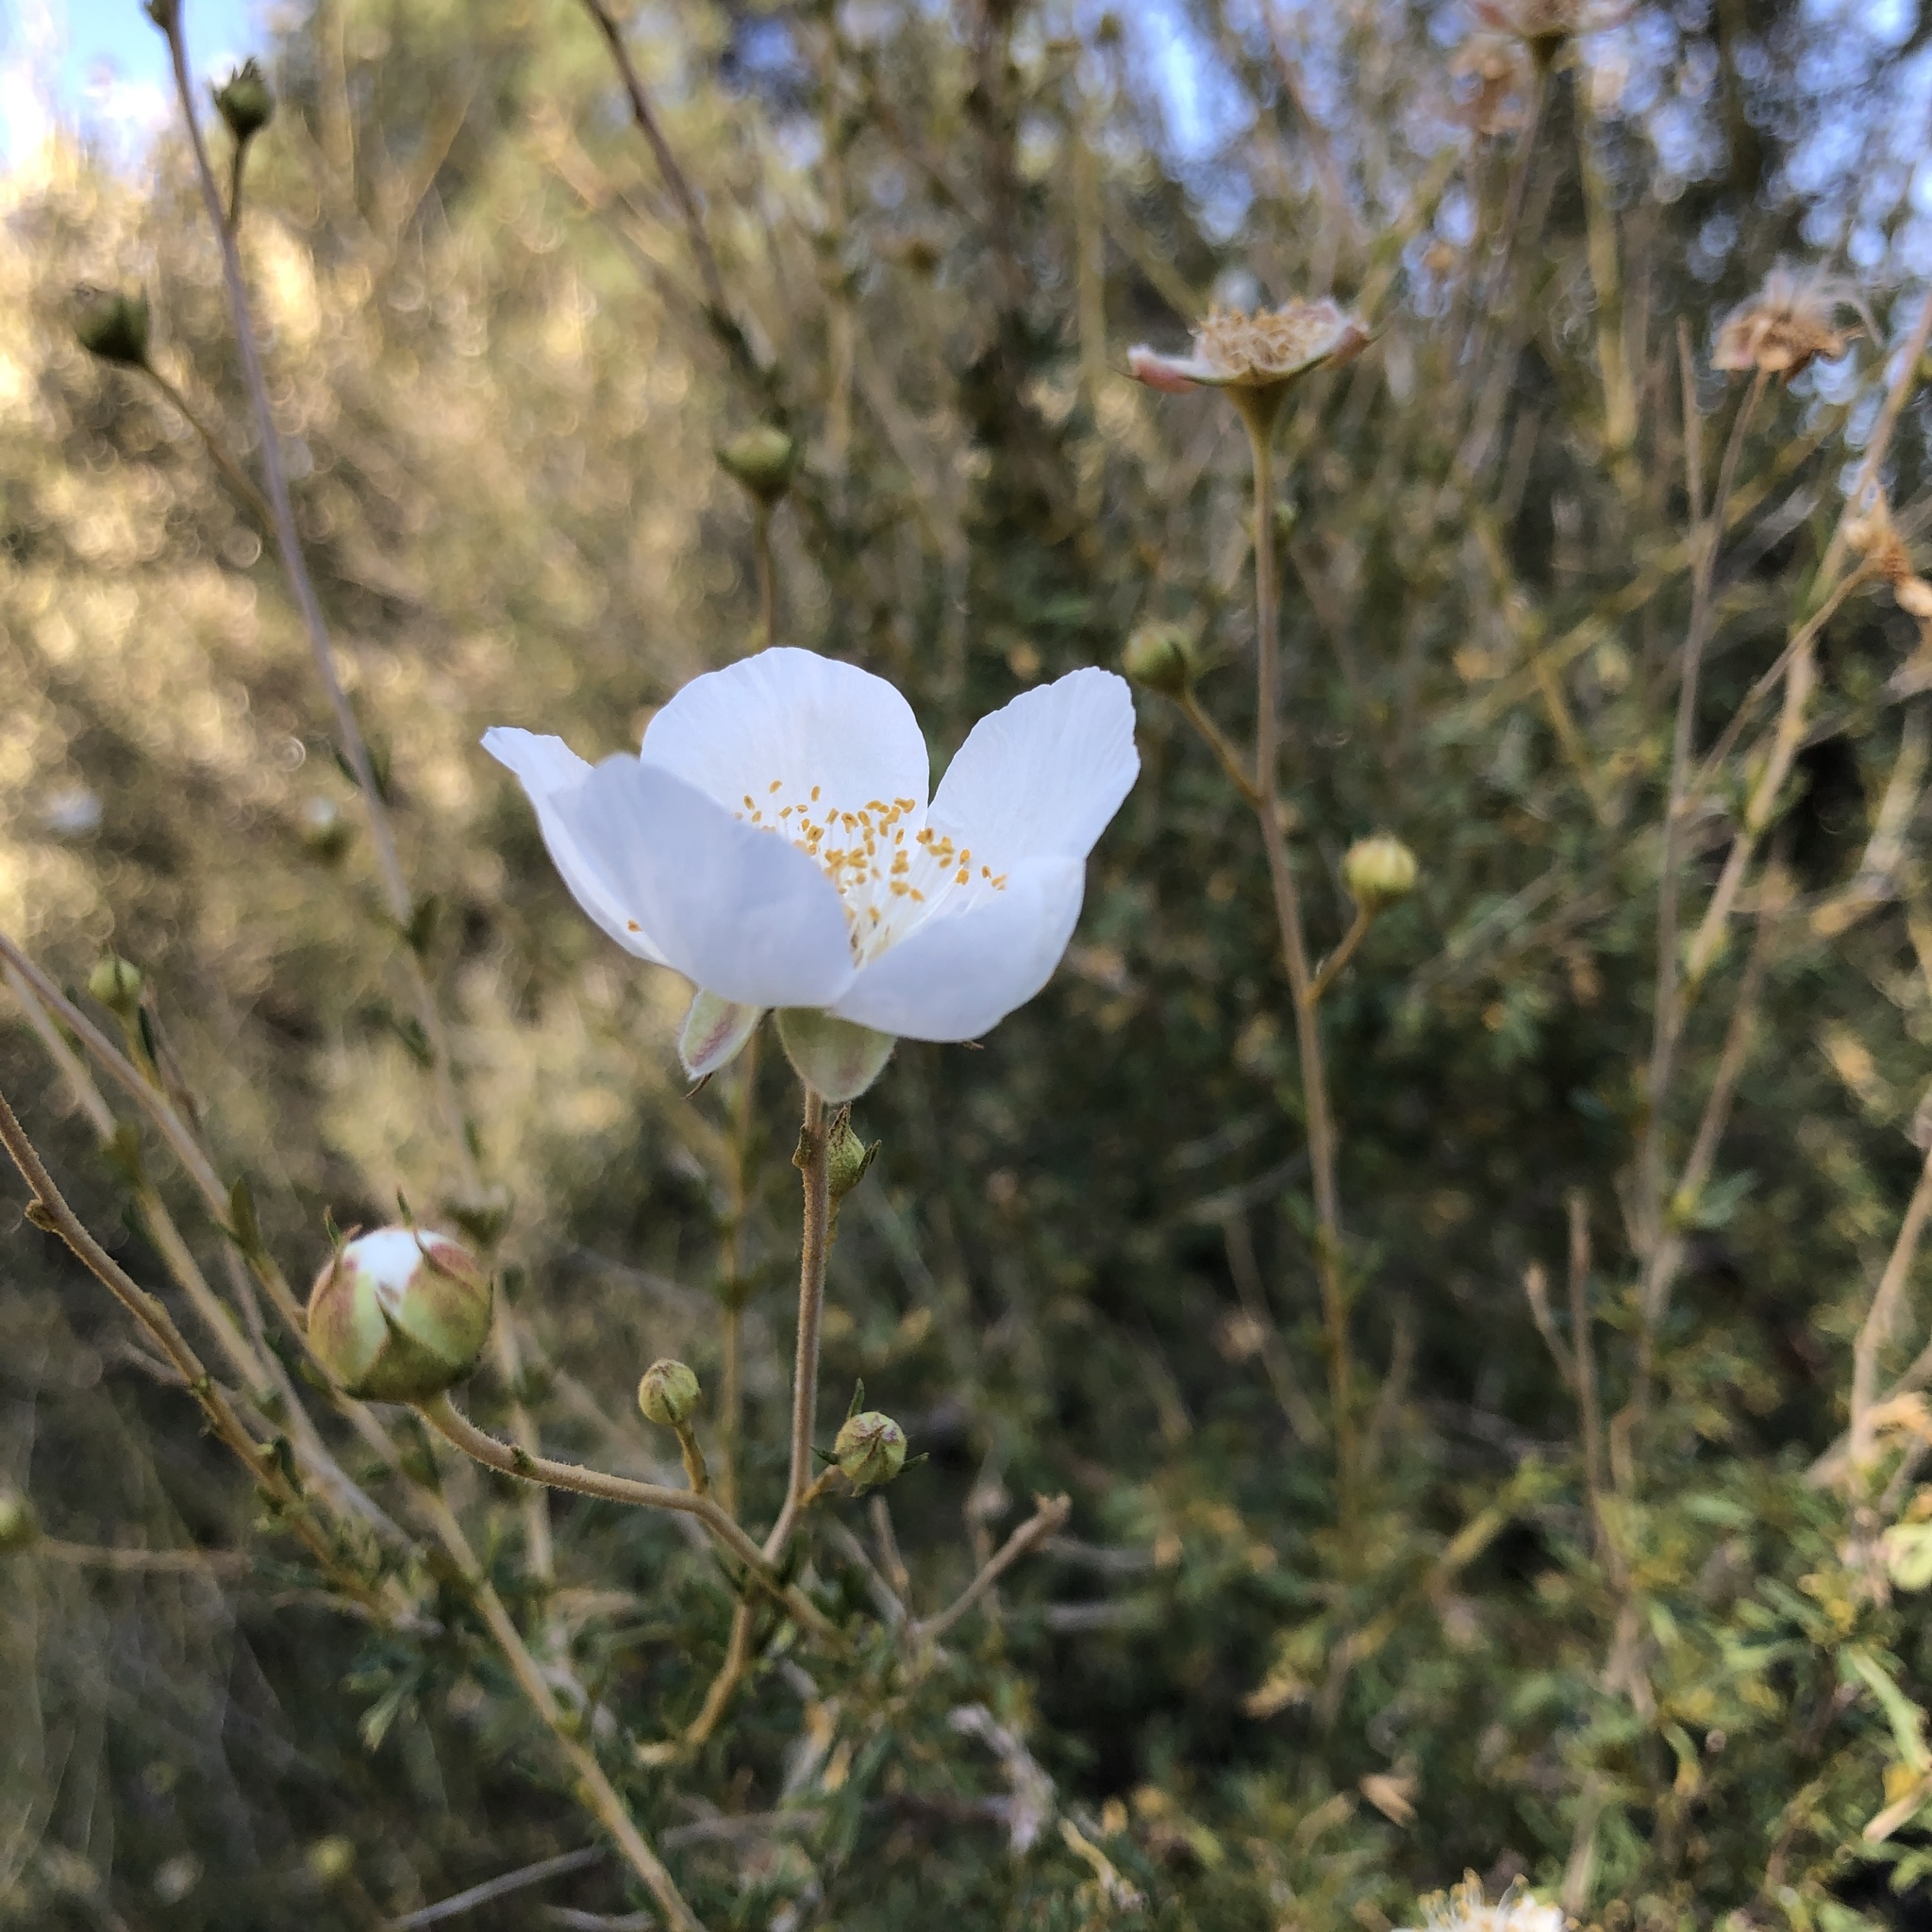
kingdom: Plantae
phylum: Tracheophyta
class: Magnoliopsida
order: Rosales
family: Rosaceae
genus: Fallugia
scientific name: Fallugia paradoxa
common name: Apache-plume
